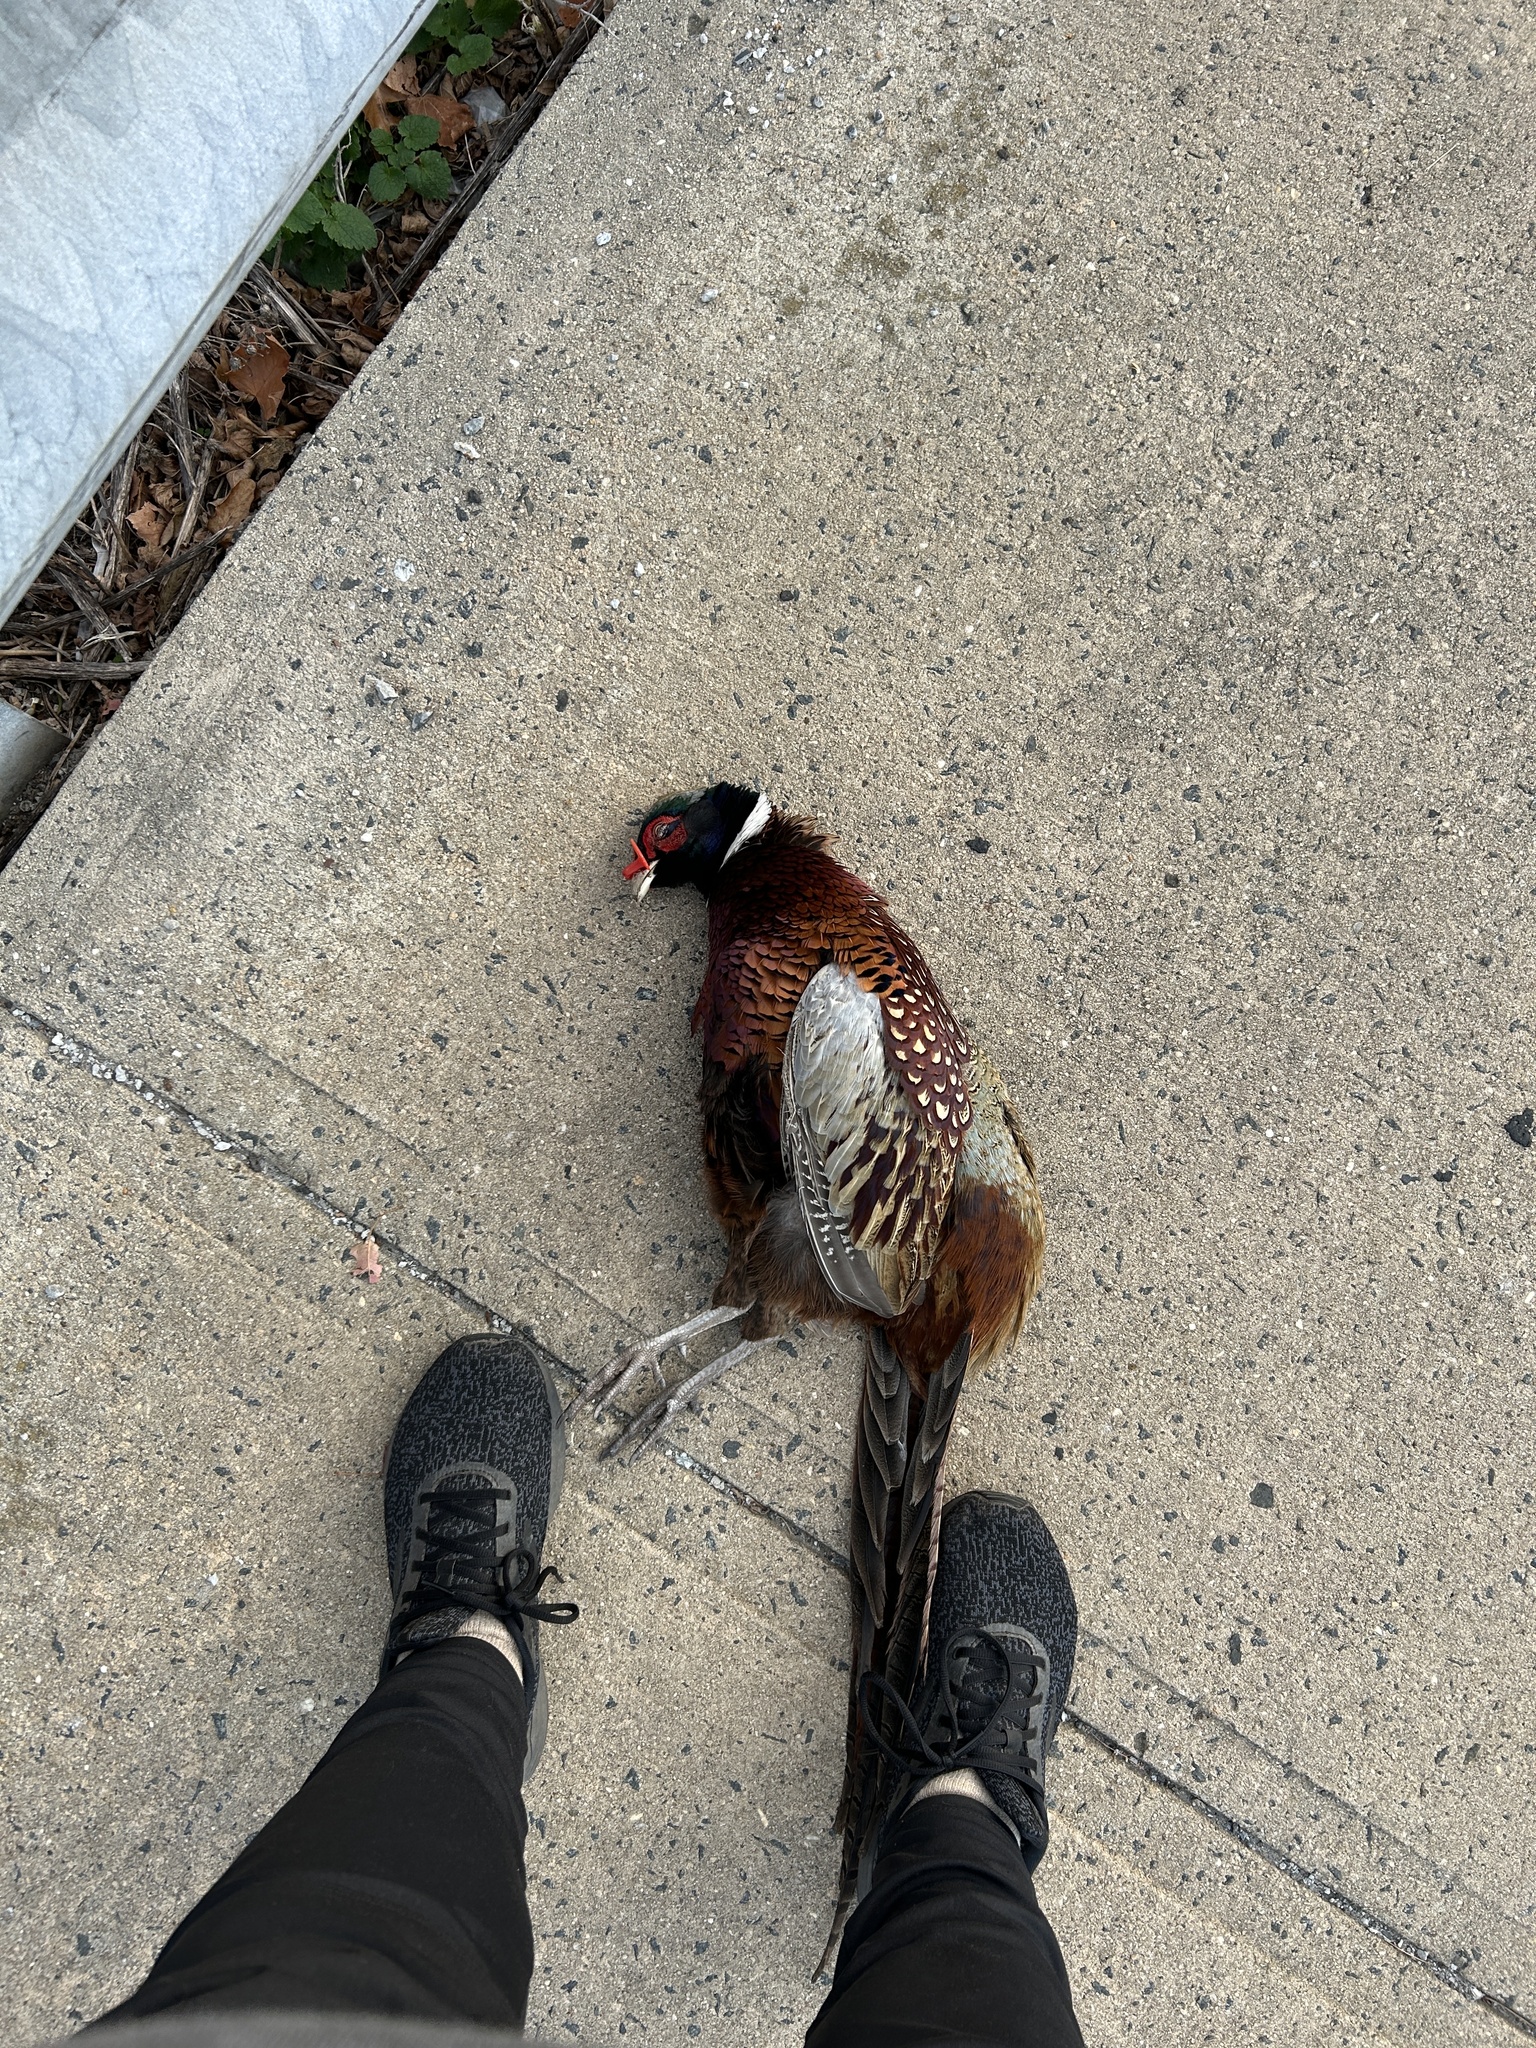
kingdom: Animalia
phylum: Chordata
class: Aves
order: Galliformes
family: Phasianidae
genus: Phasianus
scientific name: Phasianus colchicus
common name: Common pheasant
